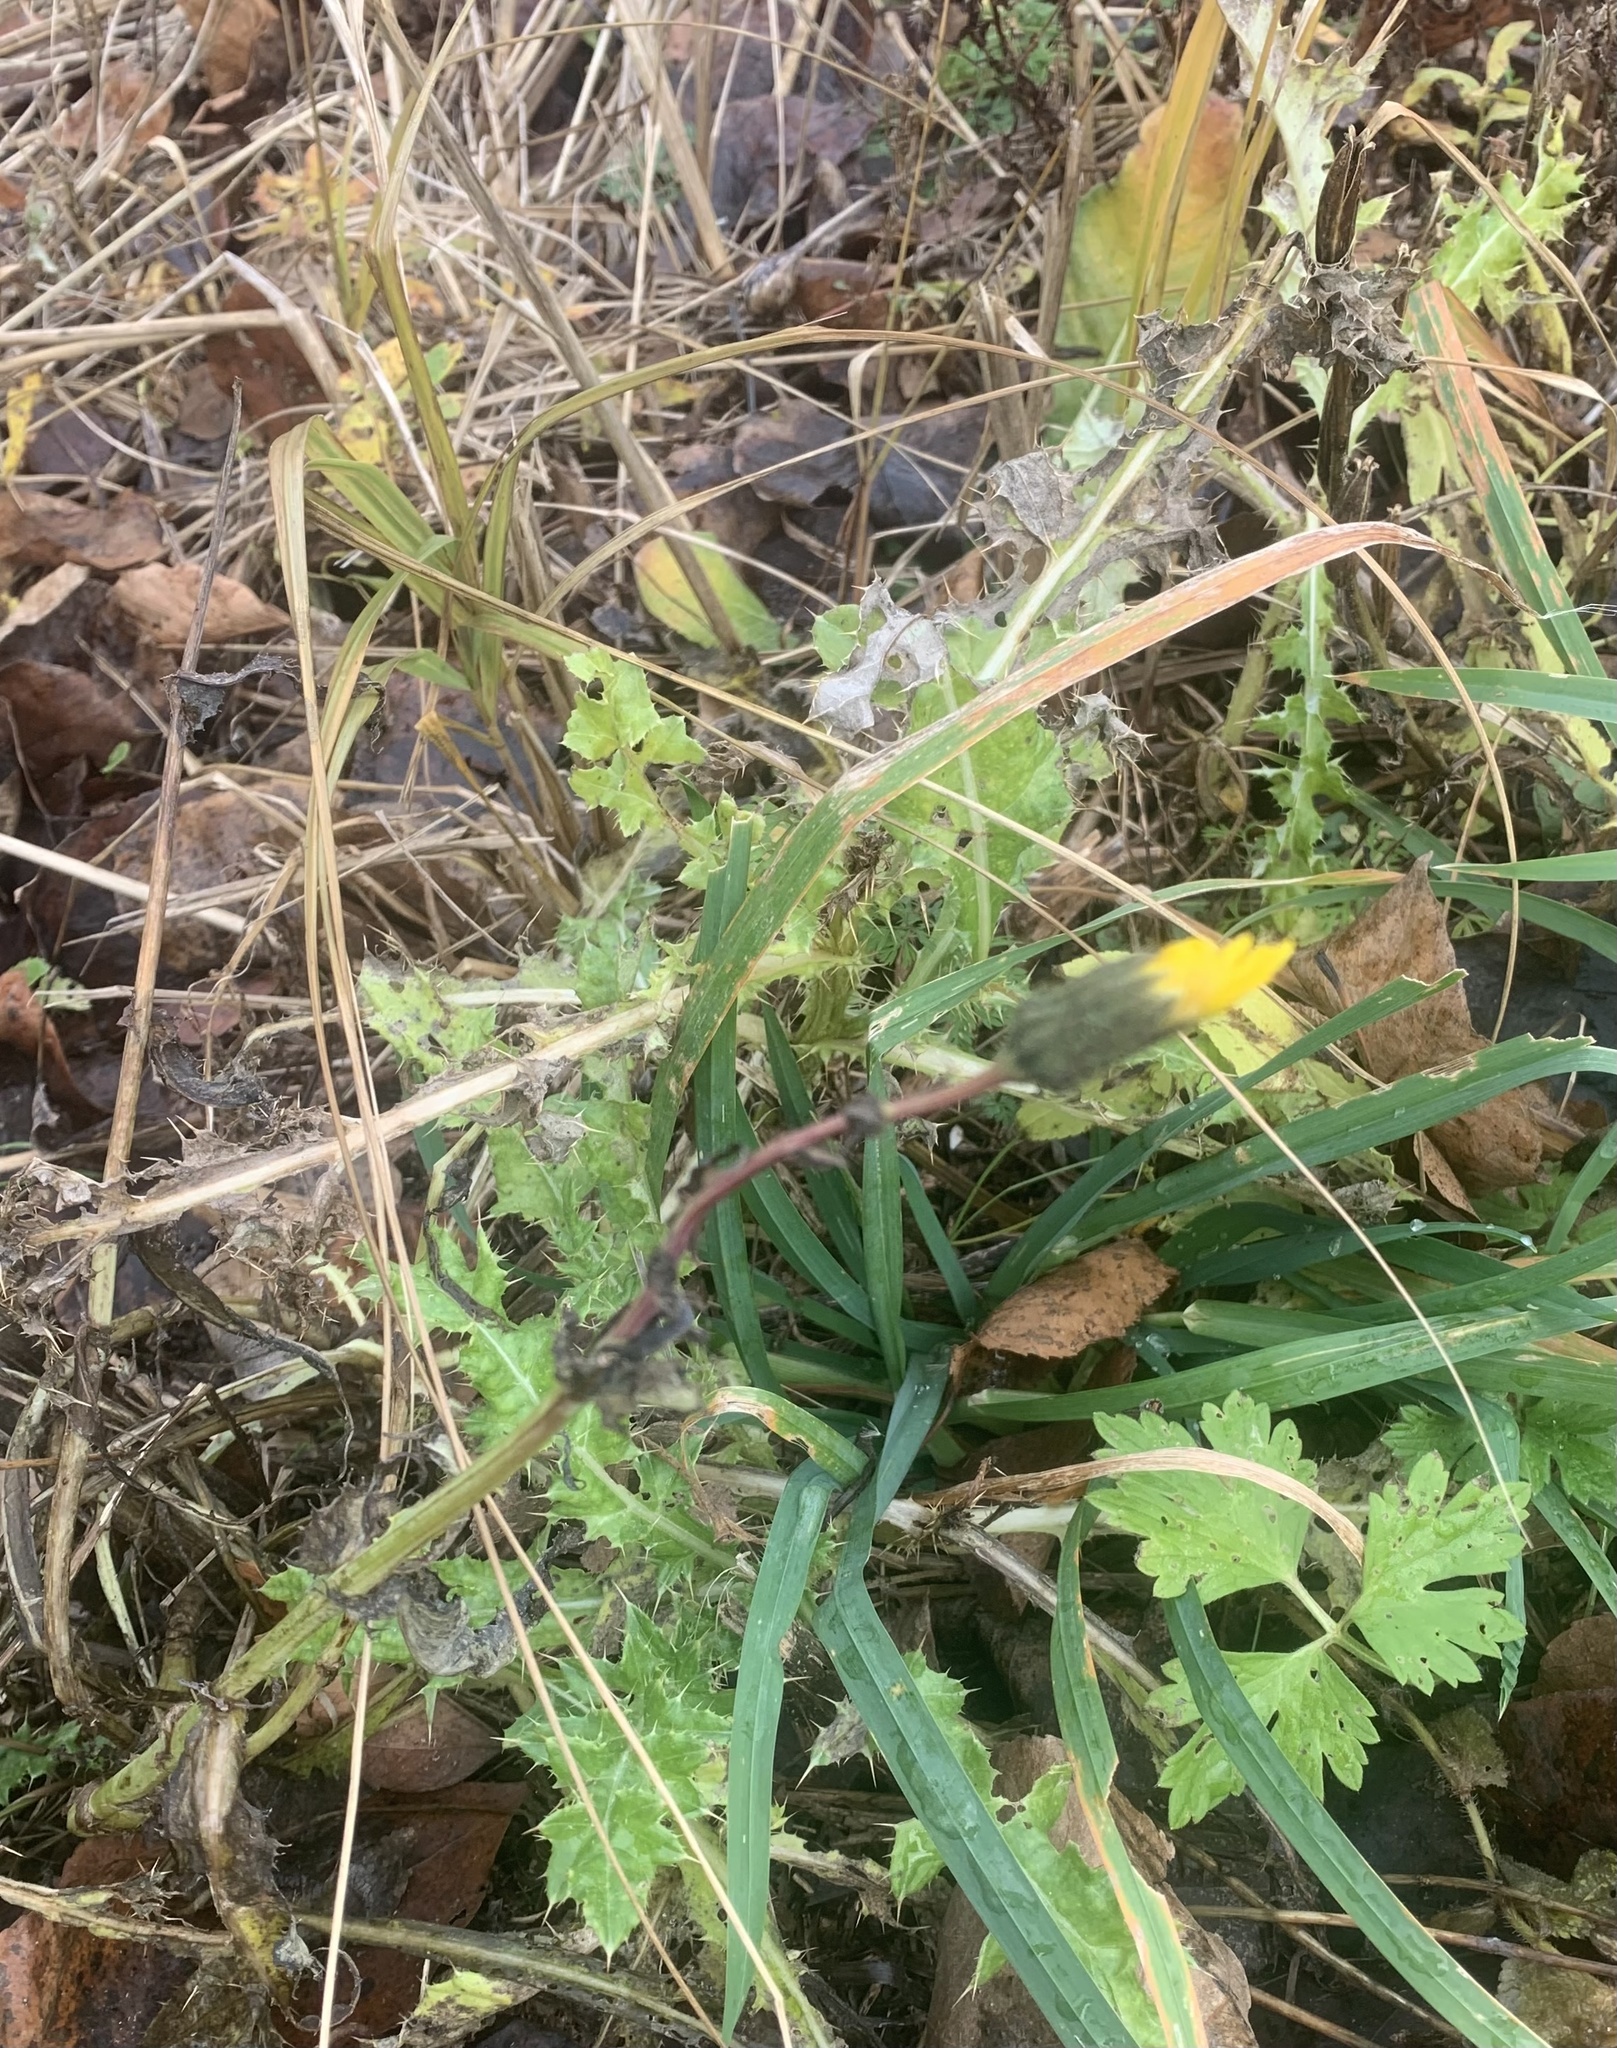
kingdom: Plantae
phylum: Tracheophyta
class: Magnoliopsida
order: Asterales
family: Asteraceae
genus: Sonchus
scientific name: Sonchus asper
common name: Prickly sow-thistle
